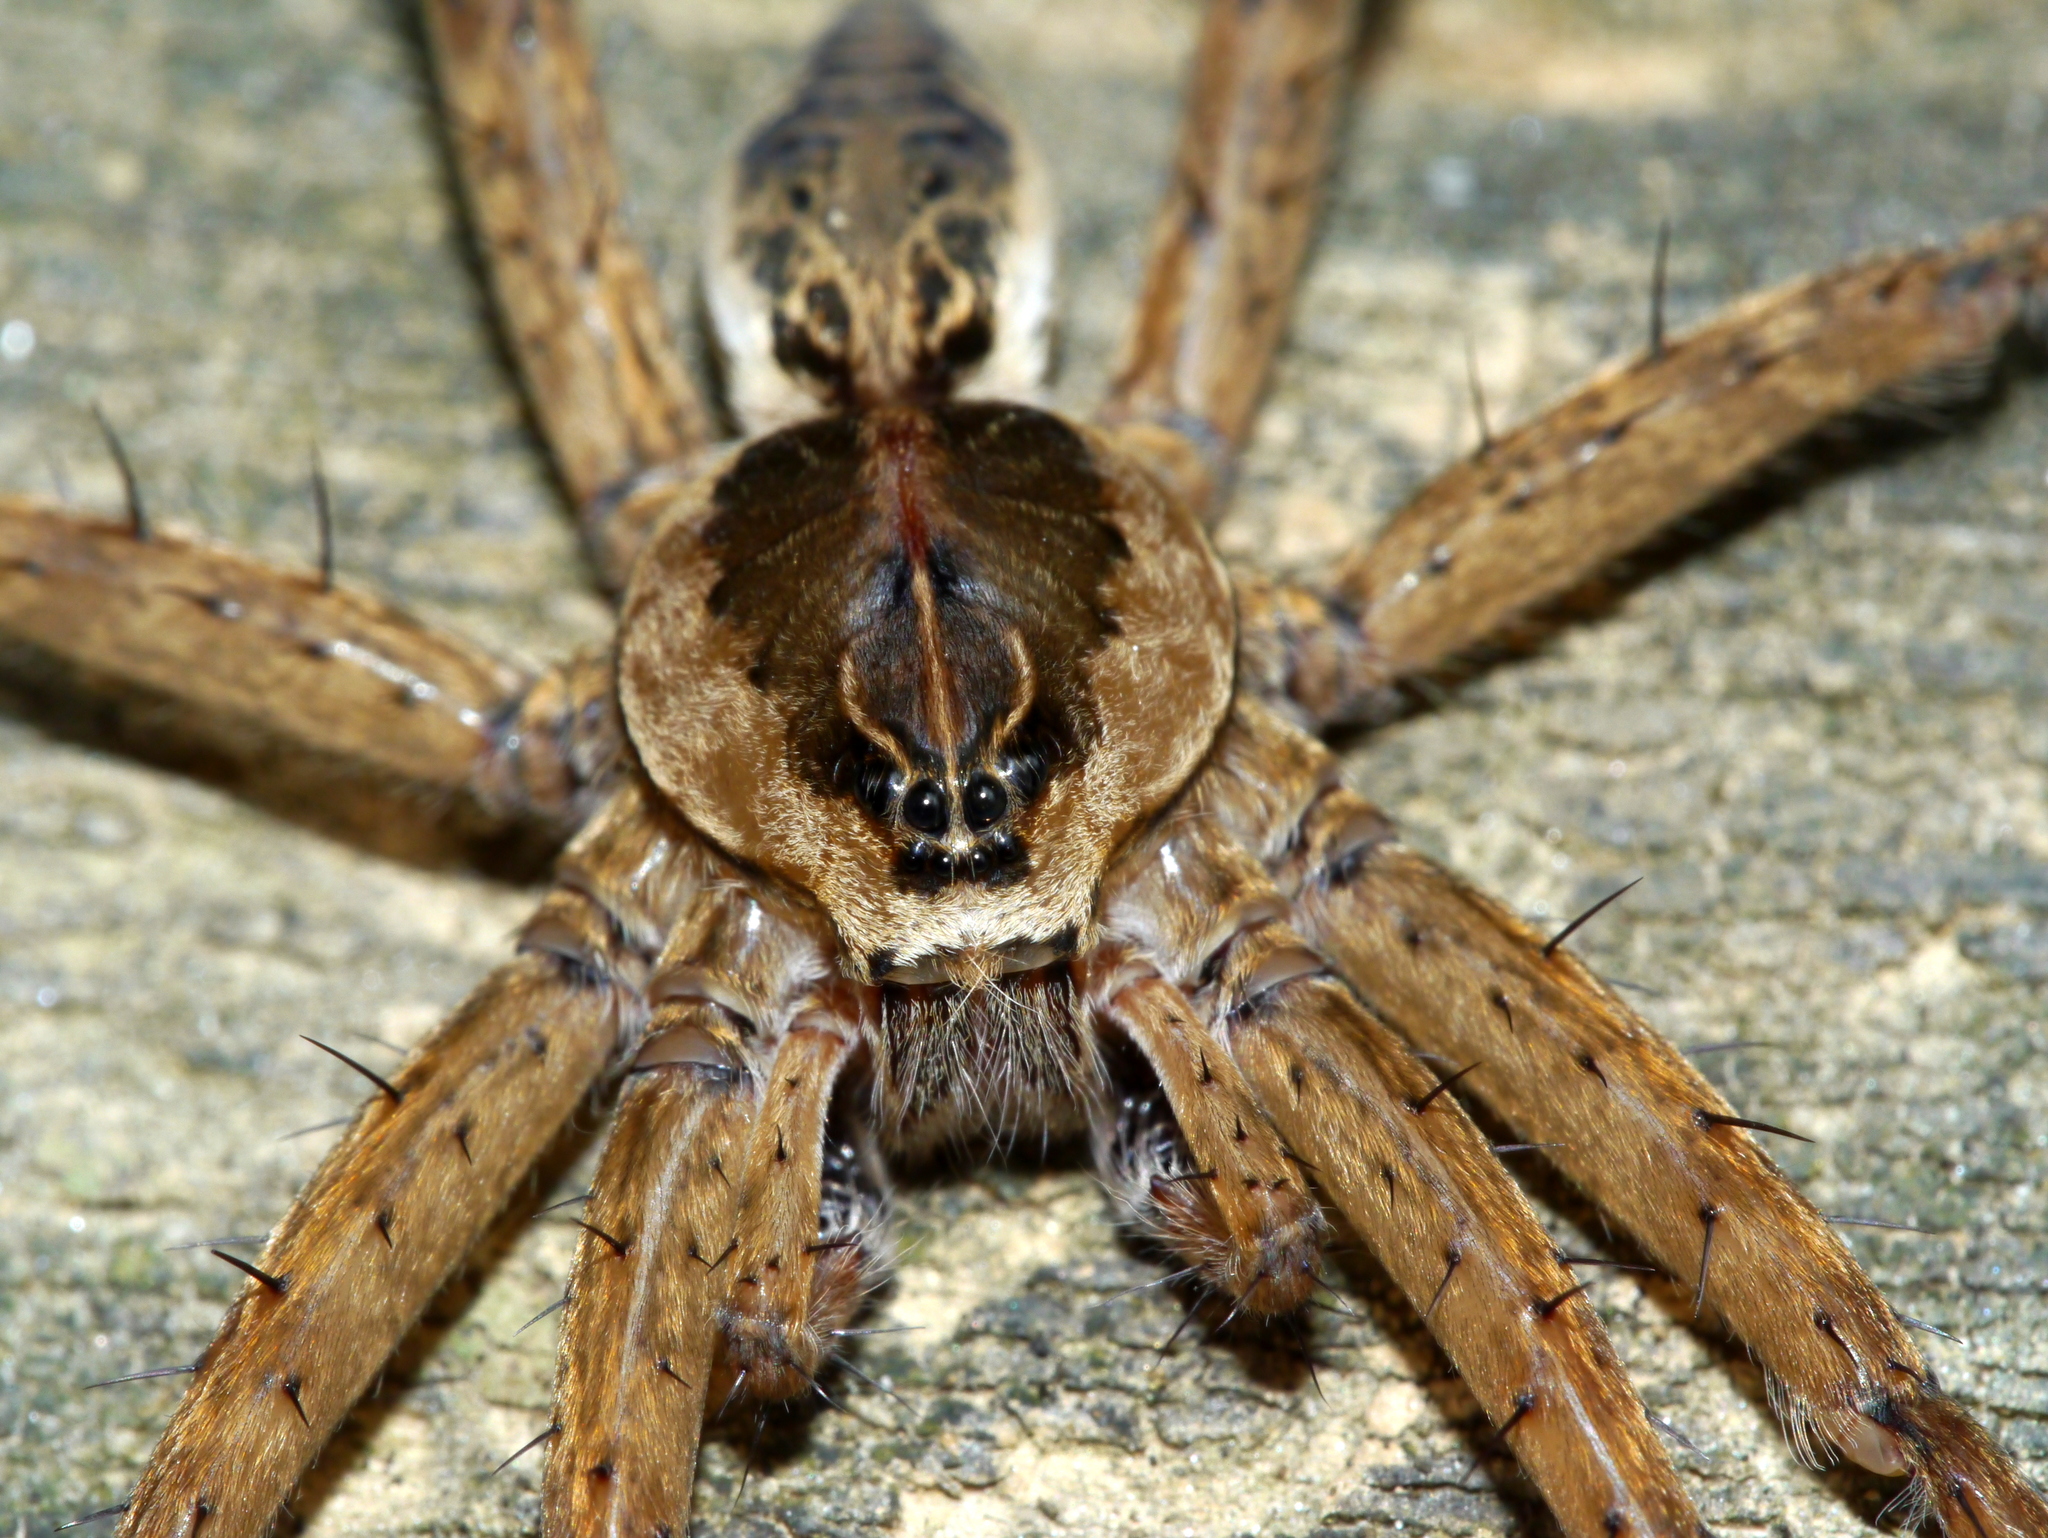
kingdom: Animalia
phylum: Arthropoda
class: Arachnida
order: Araneae
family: Pisauridae
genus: Dolomedes
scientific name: Dolomedes scriptus
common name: Striped fishing spider
